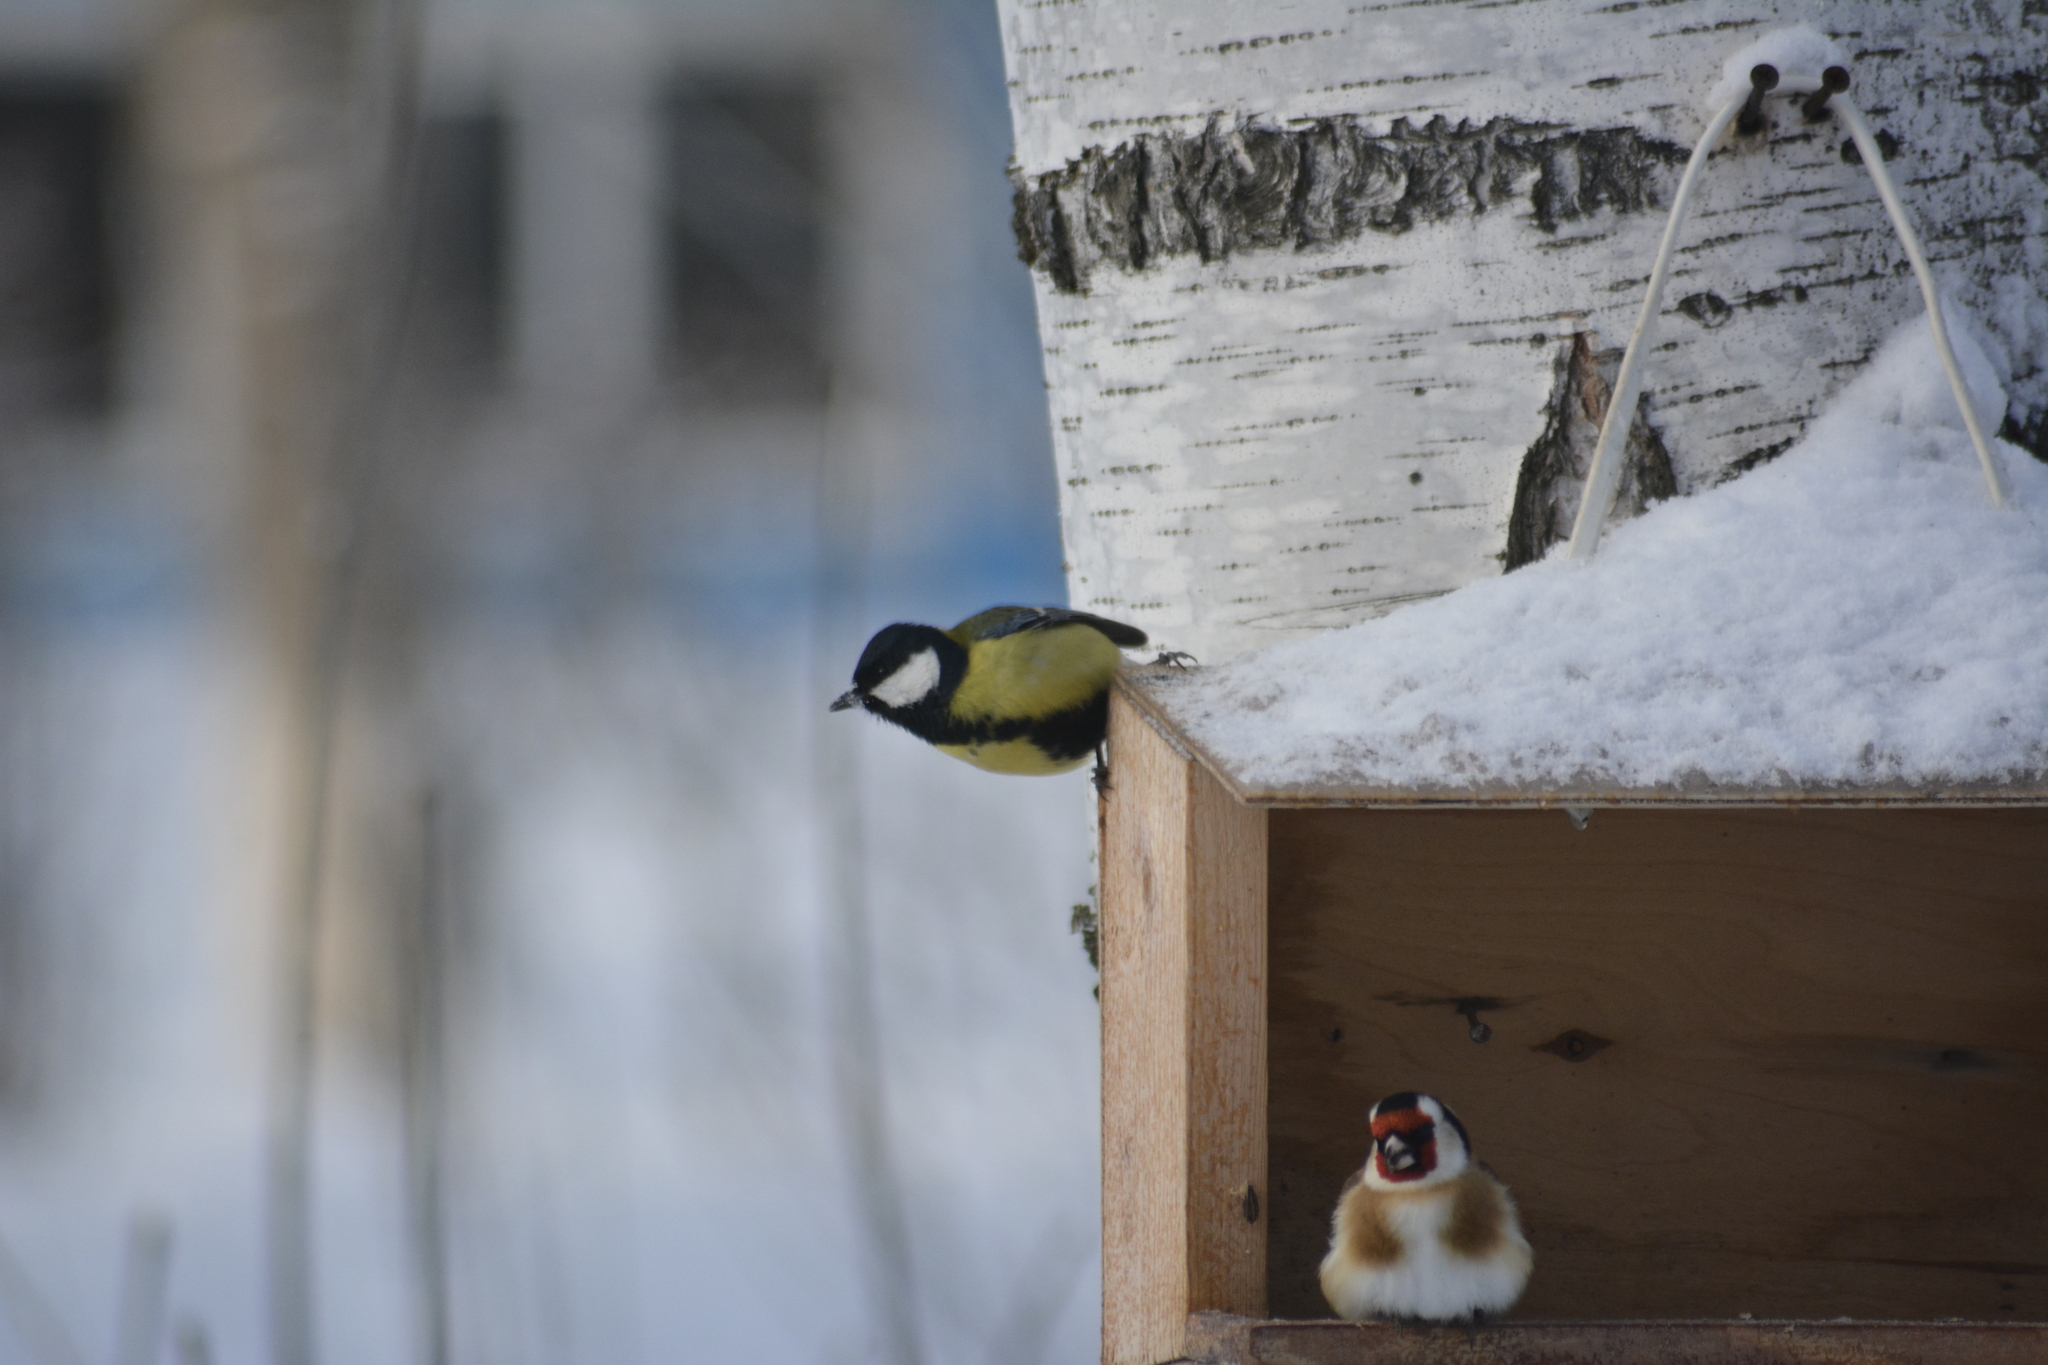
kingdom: Animalia
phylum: Chordata
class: Aves
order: Passeriformes
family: Paridae
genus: Parus
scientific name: Parus major
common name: Great tit
